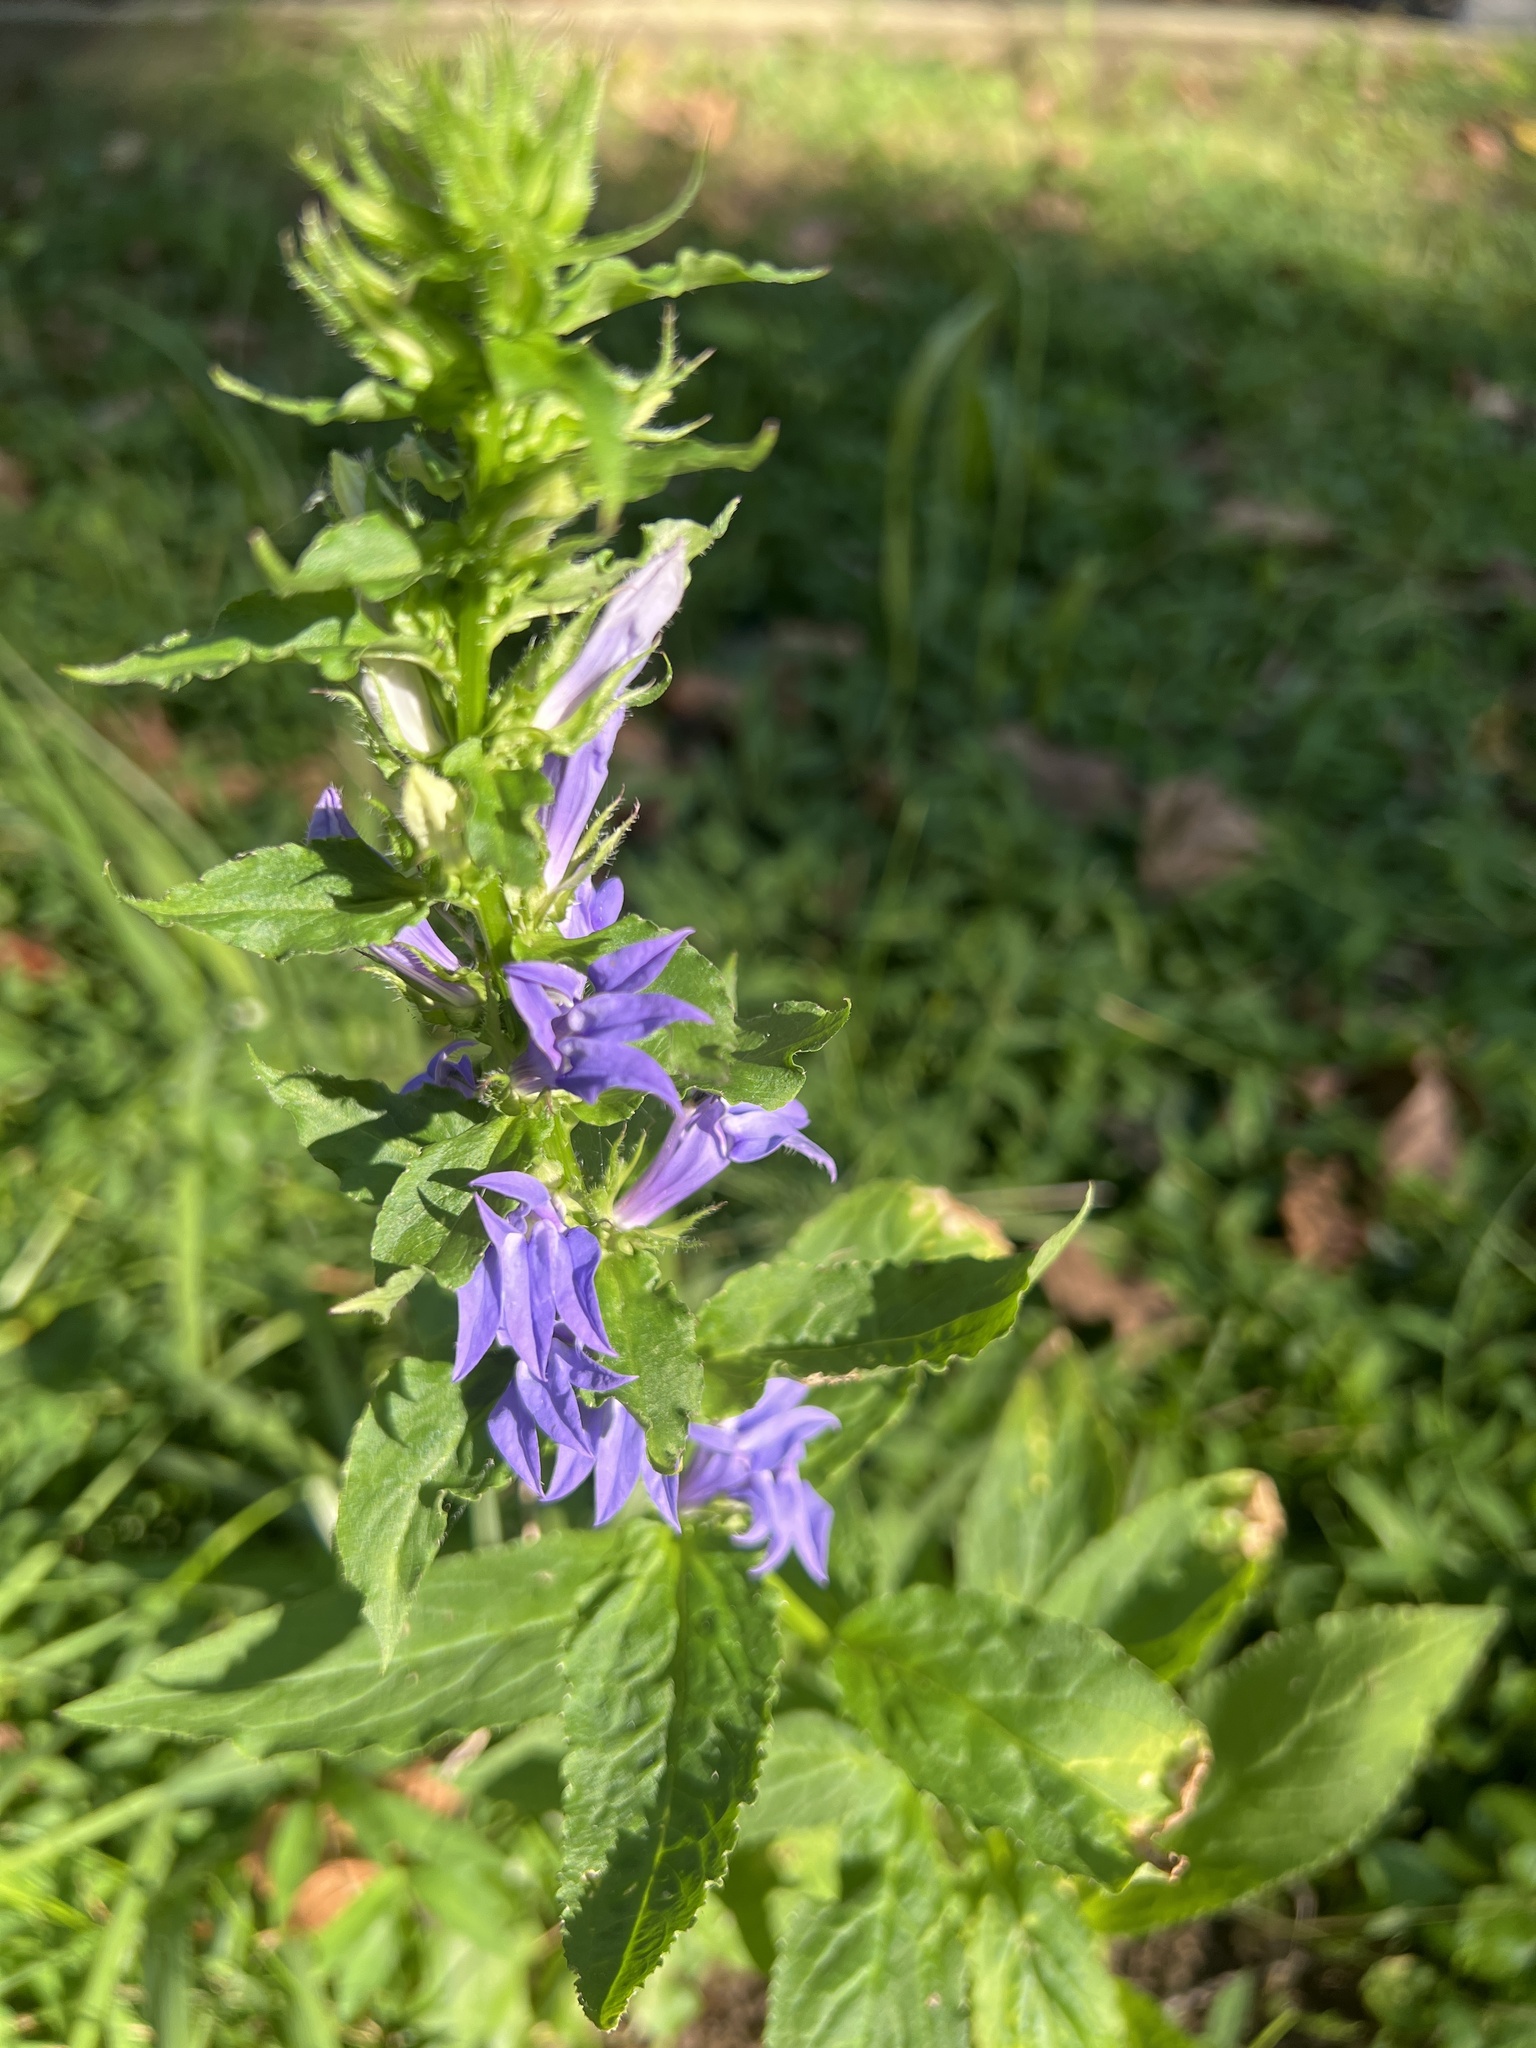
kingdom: Plantae
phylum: Tracheophyta
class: Magnoliopsida
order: Asterales
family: Campanulaceae
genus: Lobelia
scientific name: Lobelia siphilitica
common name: Great lobelia
